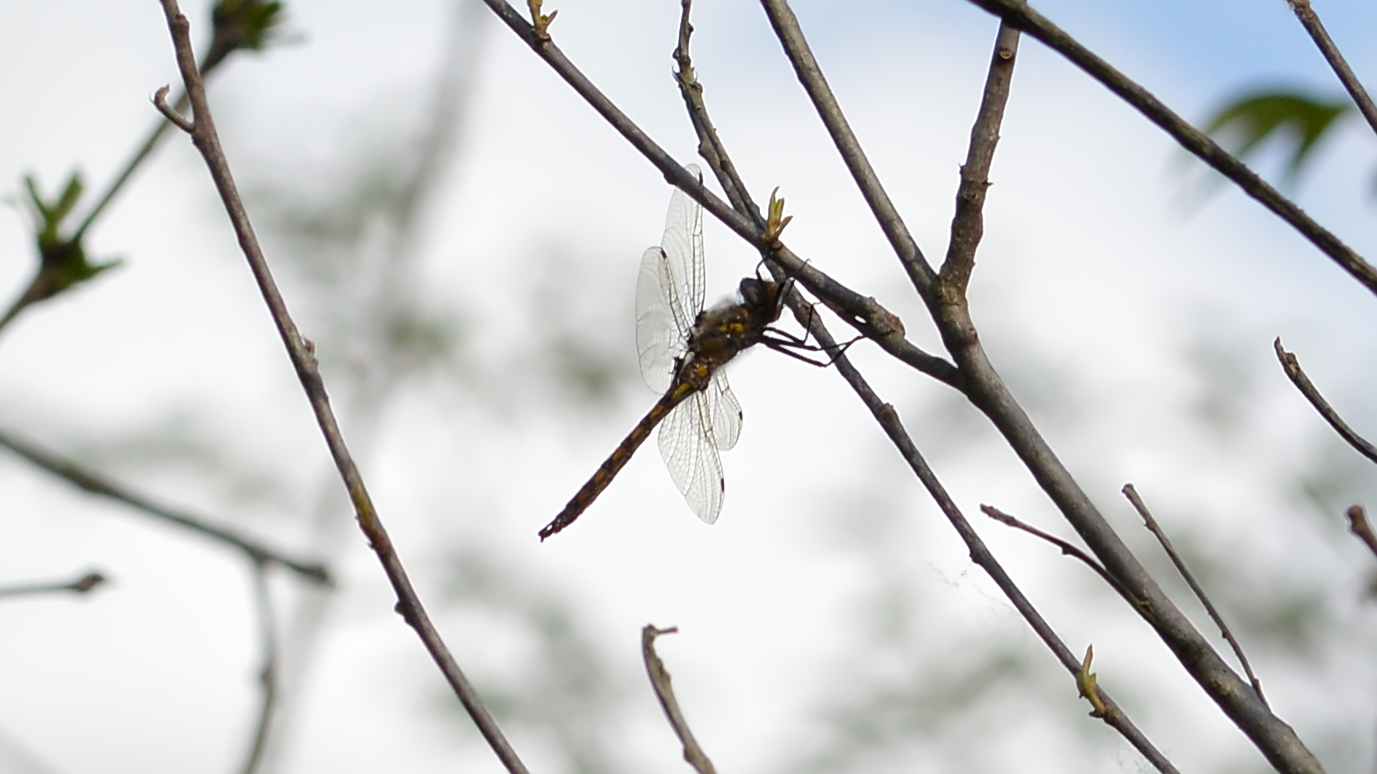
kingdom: Animalia
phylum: Arthropoda
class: Insecta
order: Odonata
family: Corduliidae
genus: Epitheca
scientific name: Epitheca canis
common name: Beaverpond baskettail
